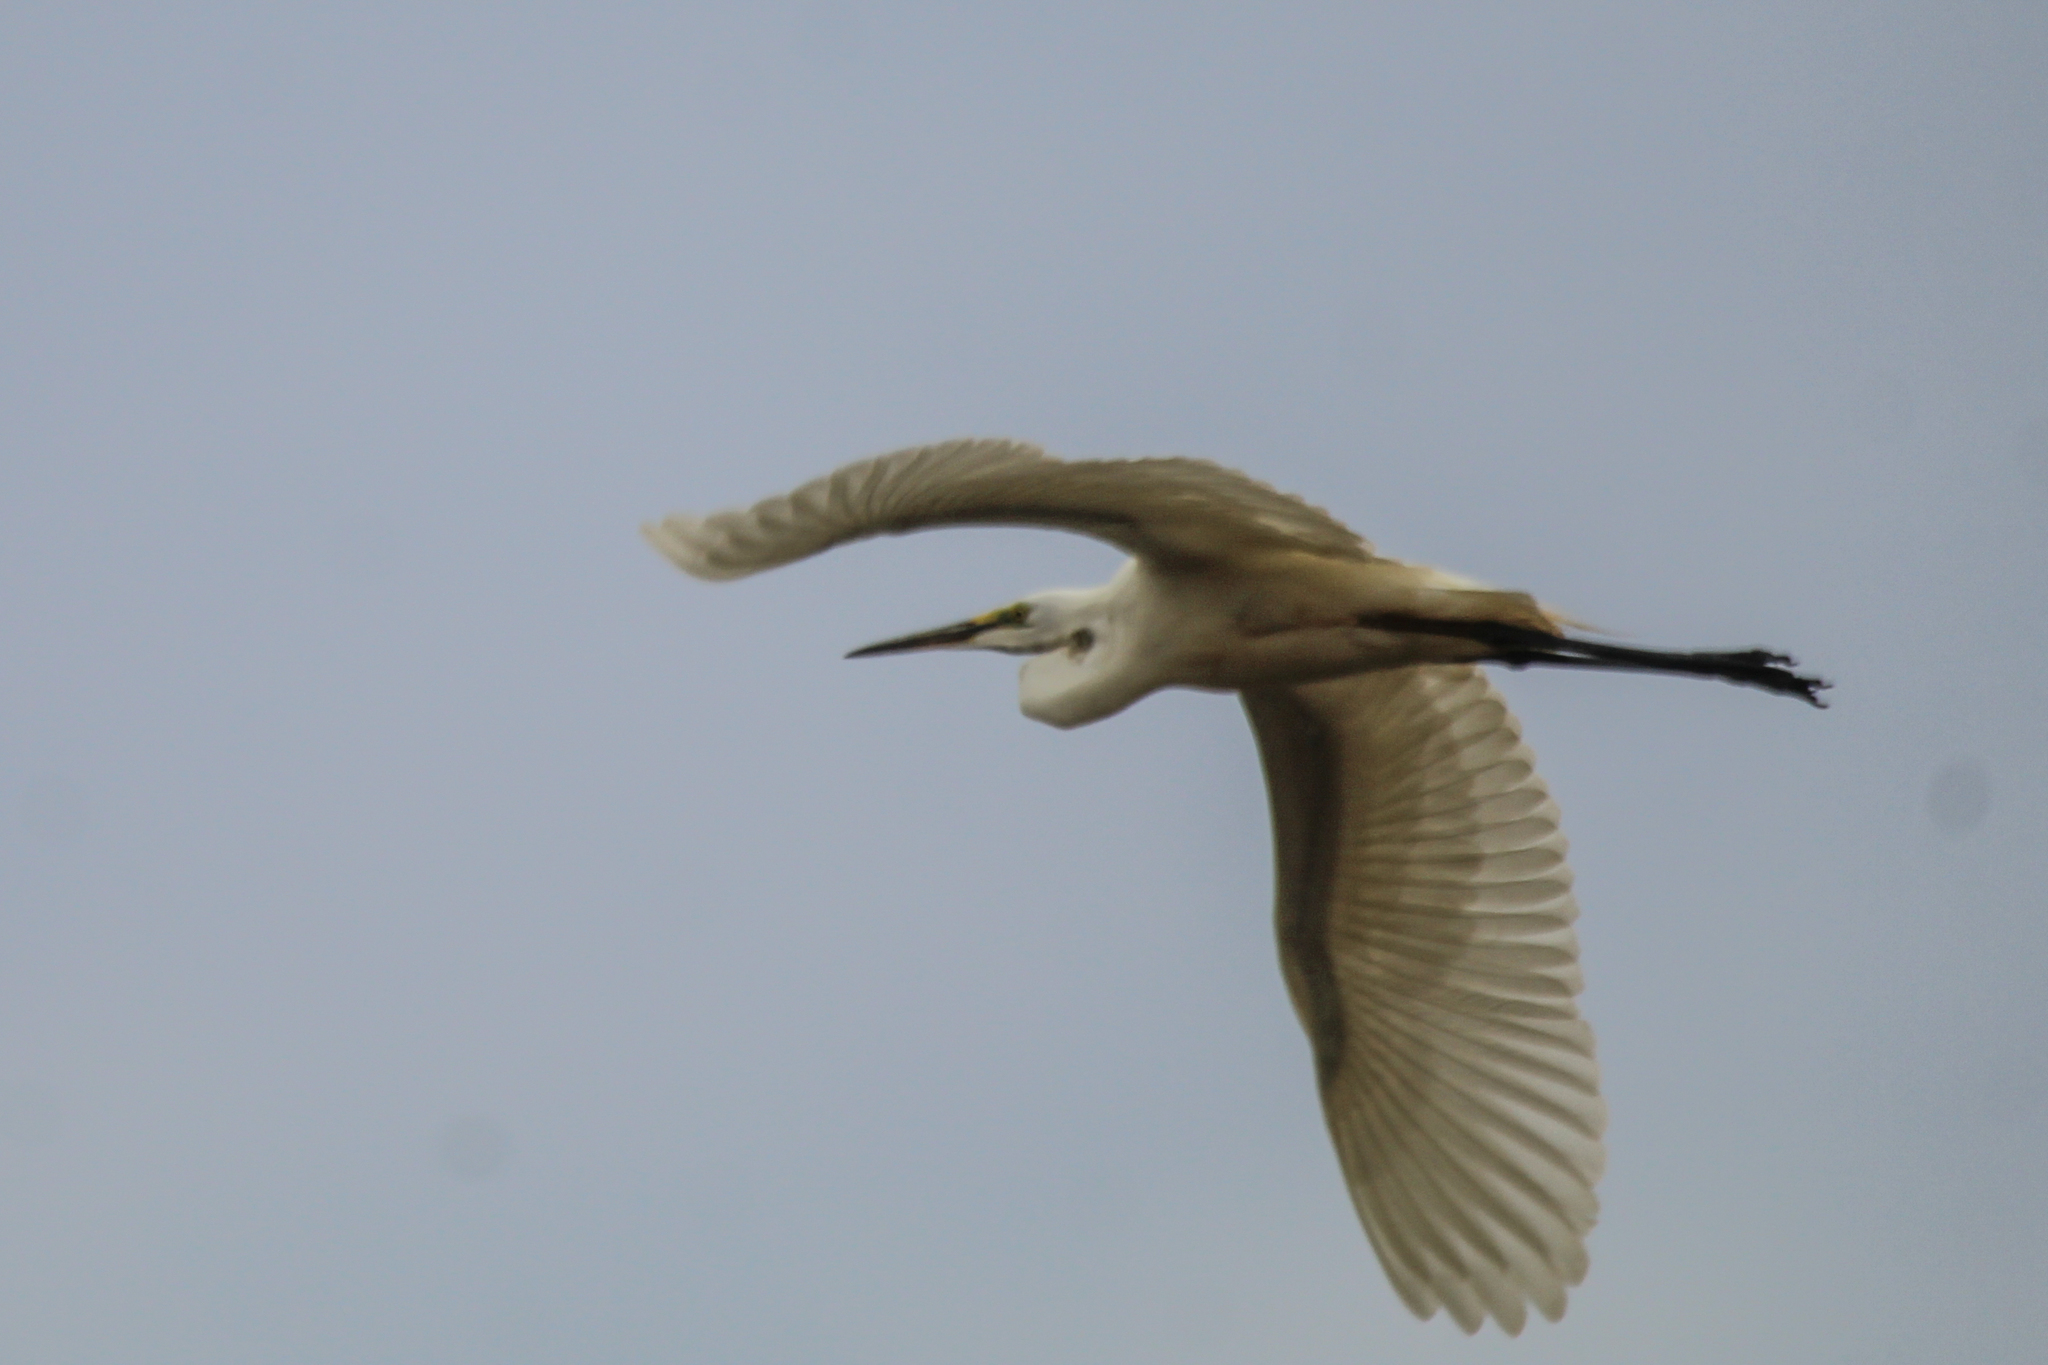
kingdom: Animalia
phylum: Chordata
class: Aves
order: Pelecaniformes
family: Ardeidae
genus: Ardea
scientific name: Ardea alba
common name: Great egret
